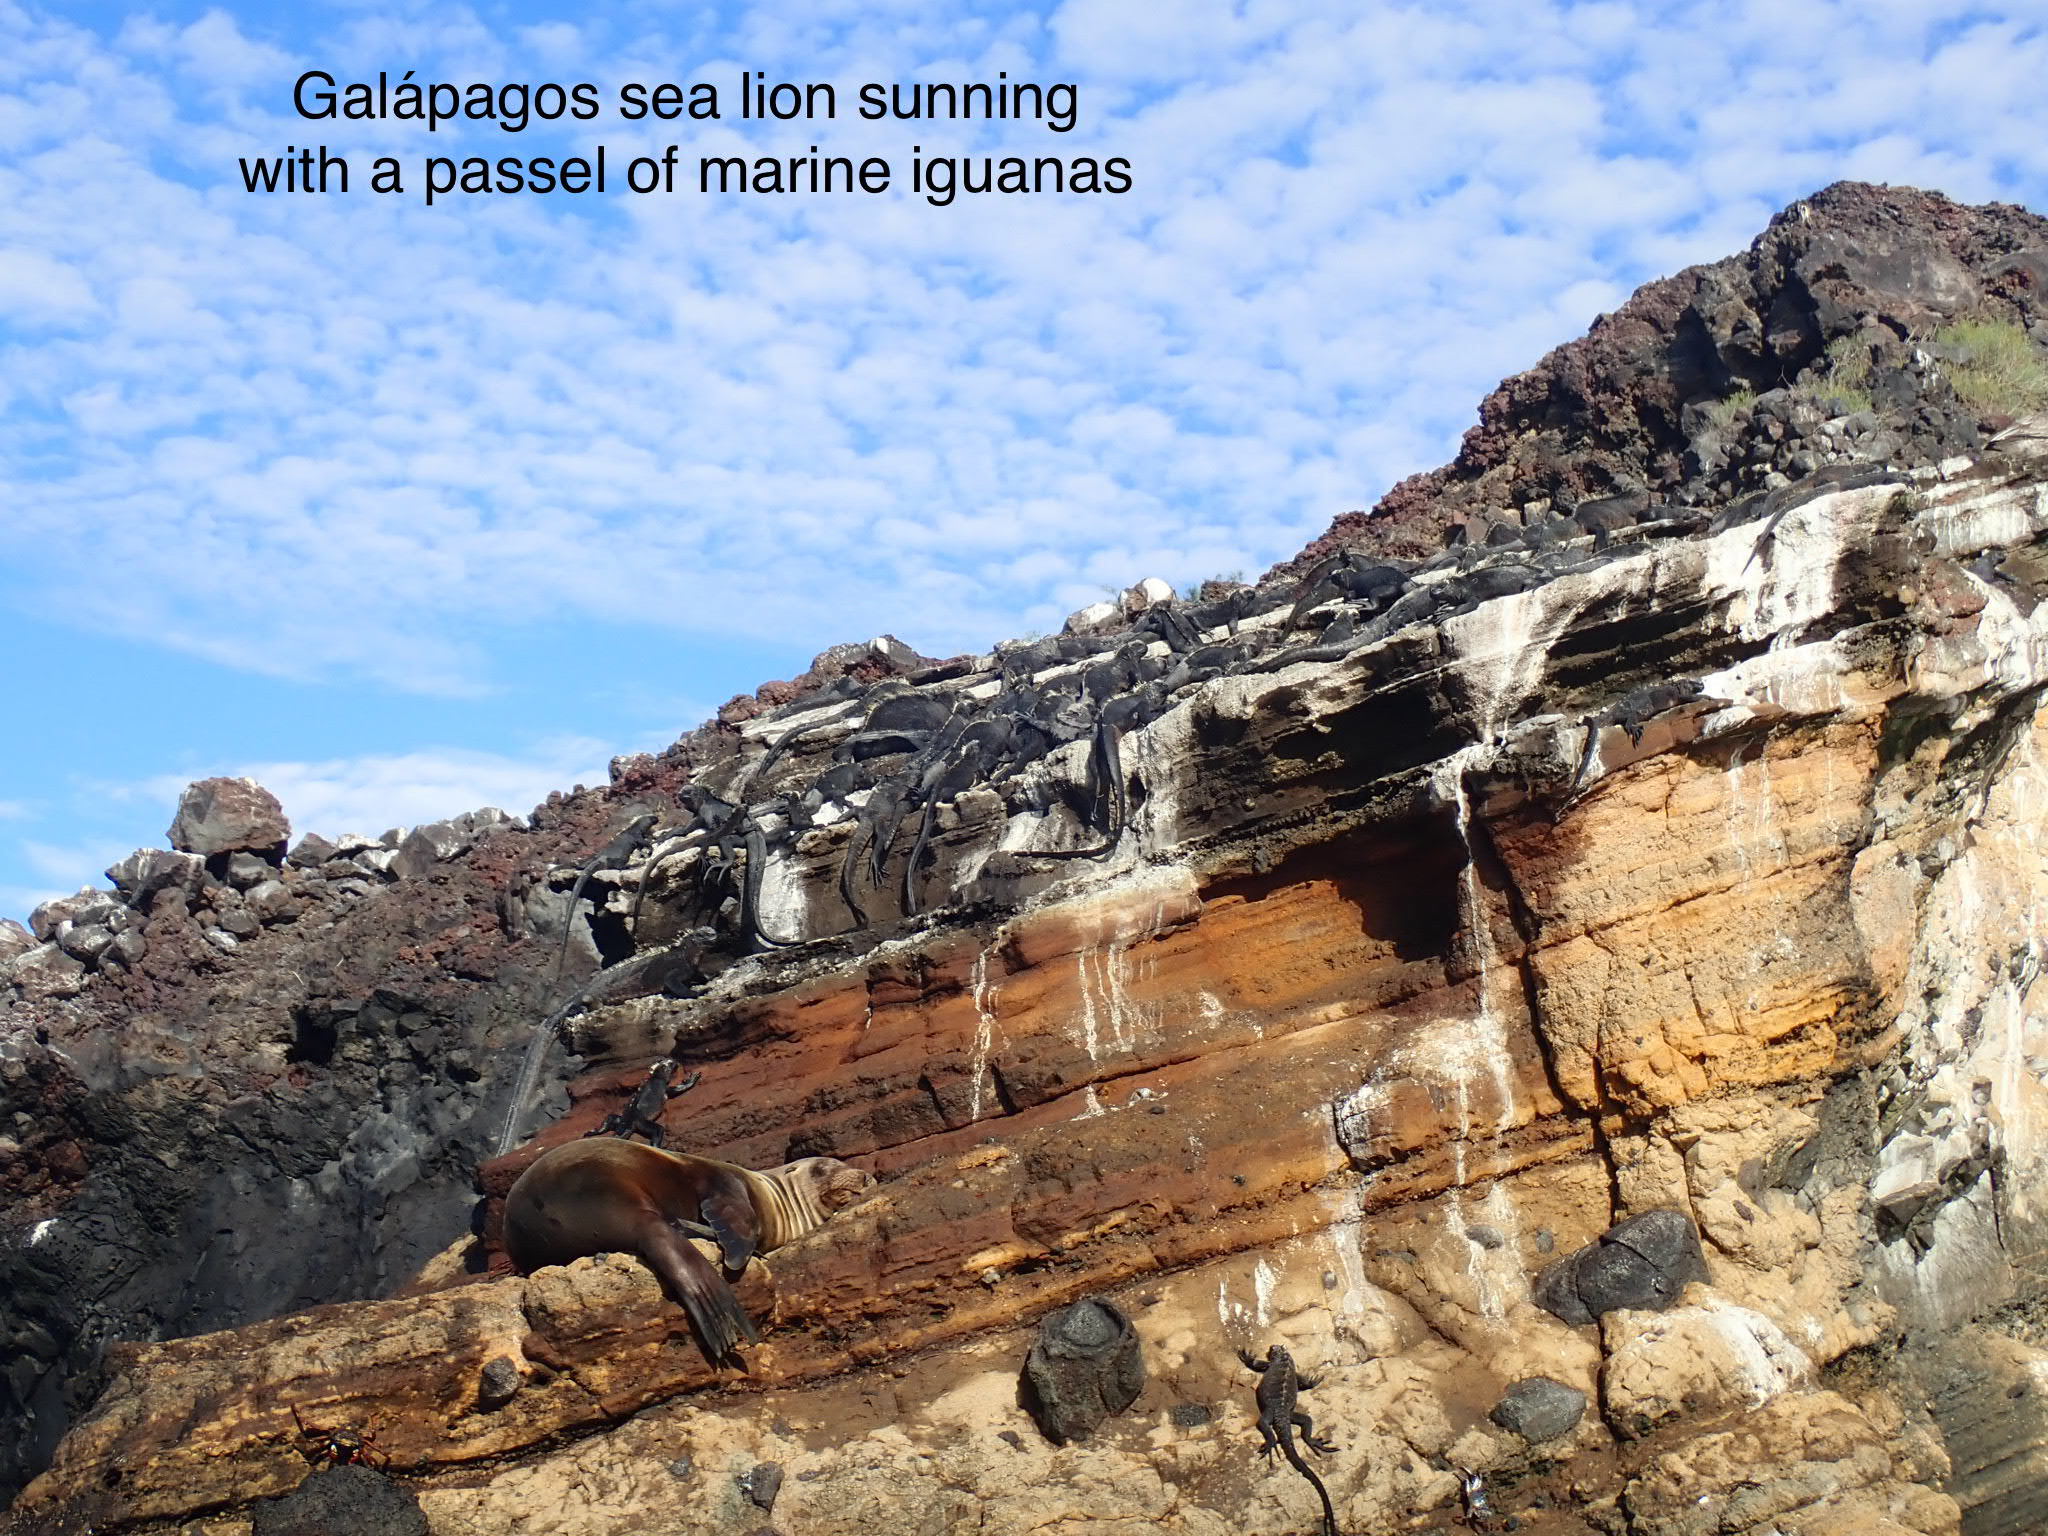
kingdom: Animalia
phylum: Chordata
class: Mammalia
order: Carnivora
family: Otariidae
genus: Zalophus
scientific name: Zalophus wollebaeki
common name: Galapagos sea lion
